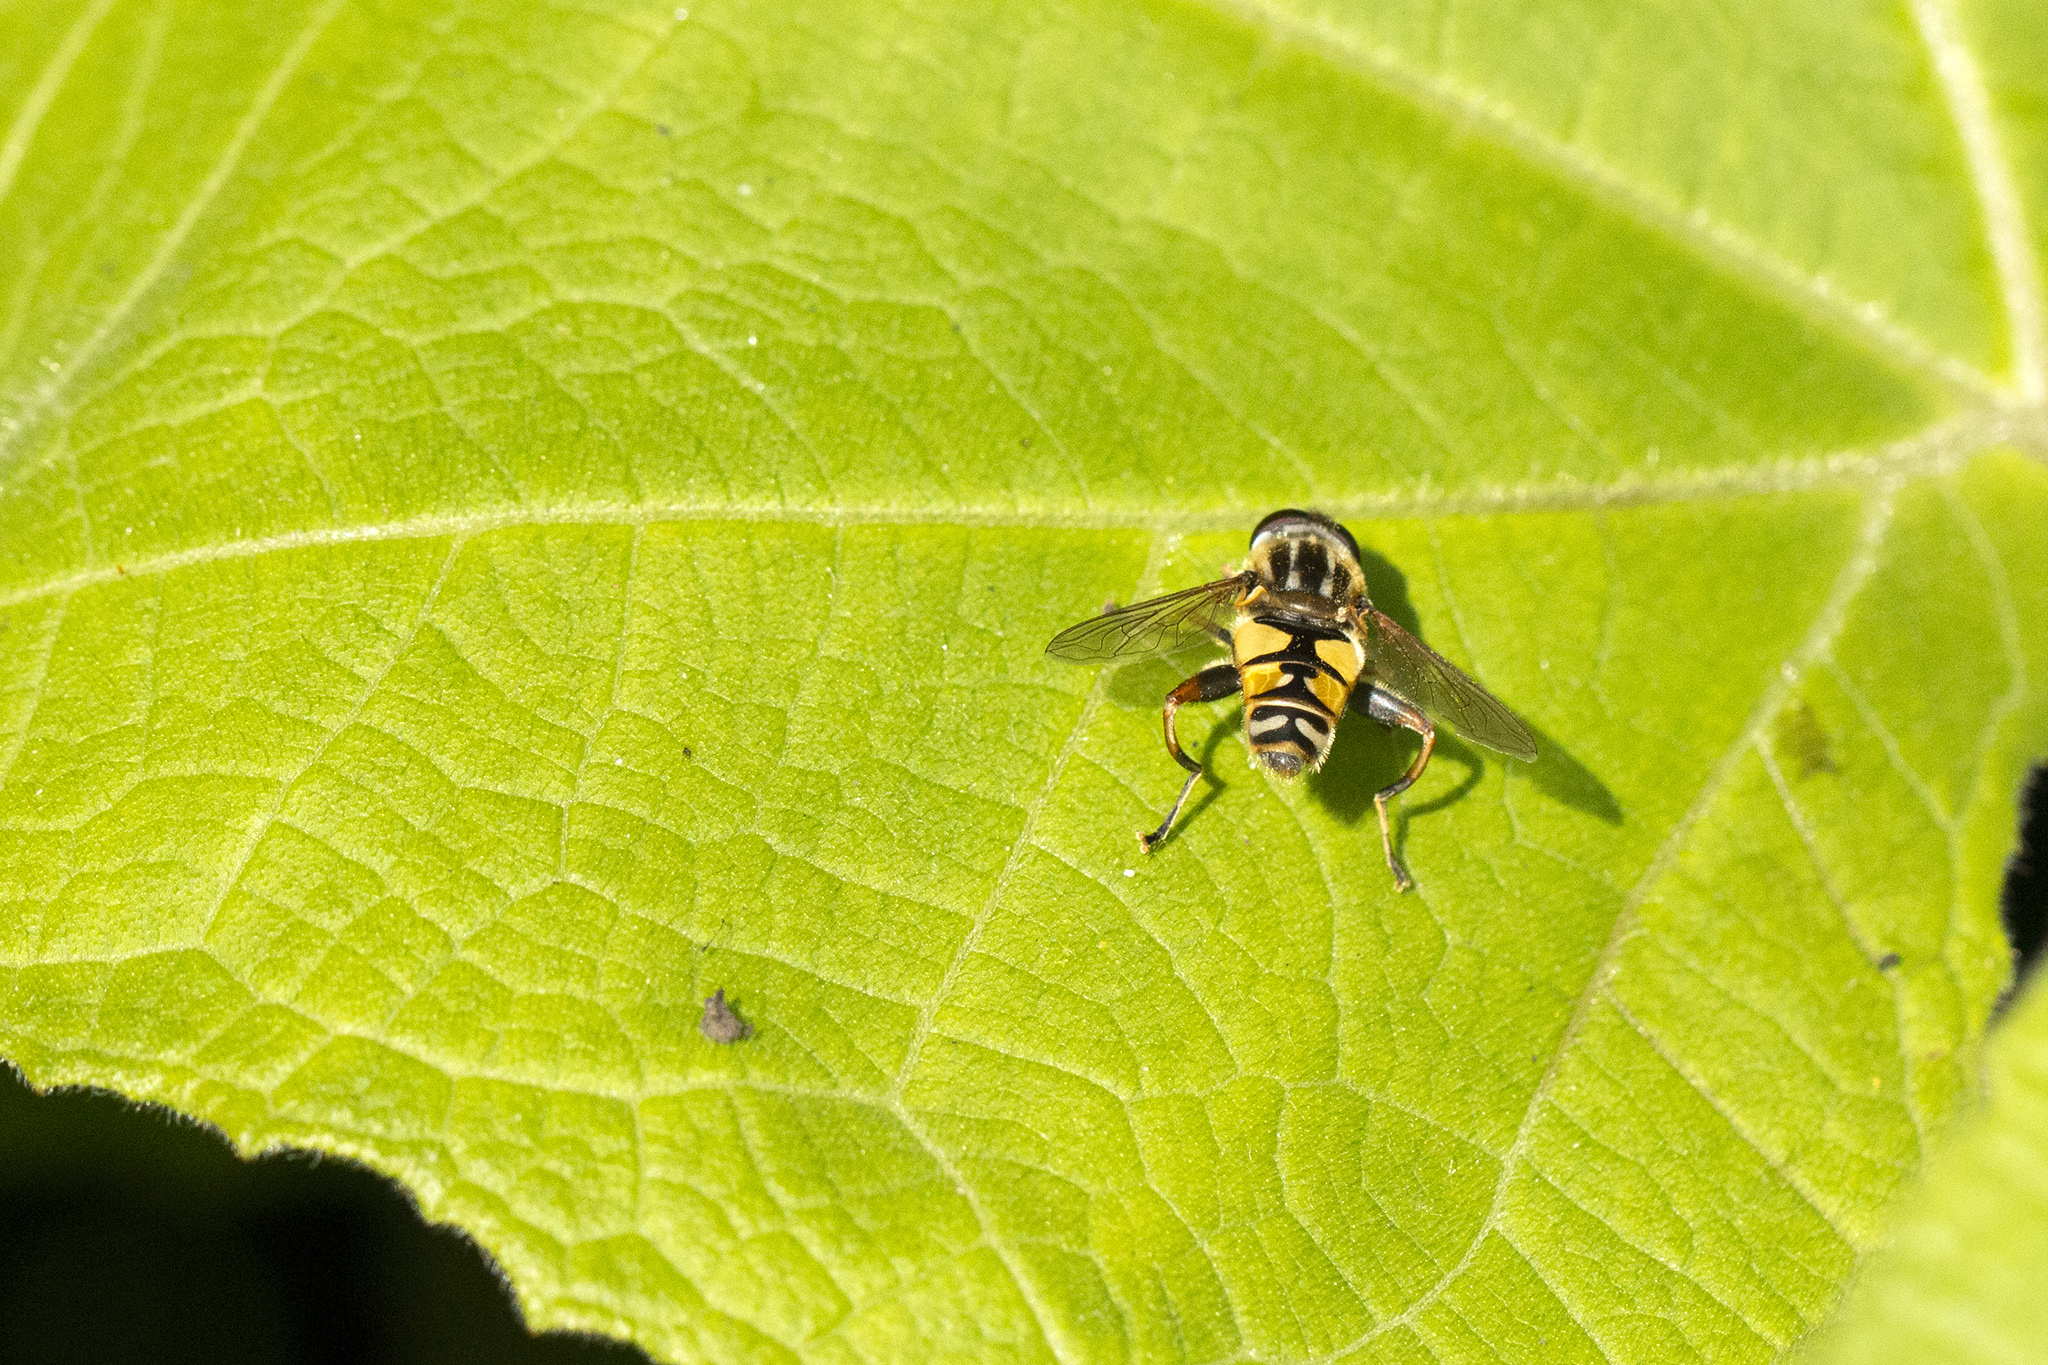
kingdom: Animalia
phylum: Arthropoda
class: Insecta
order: Diptera
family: Syrphidae
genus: Helophilus
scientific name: Helophilus pendulus
